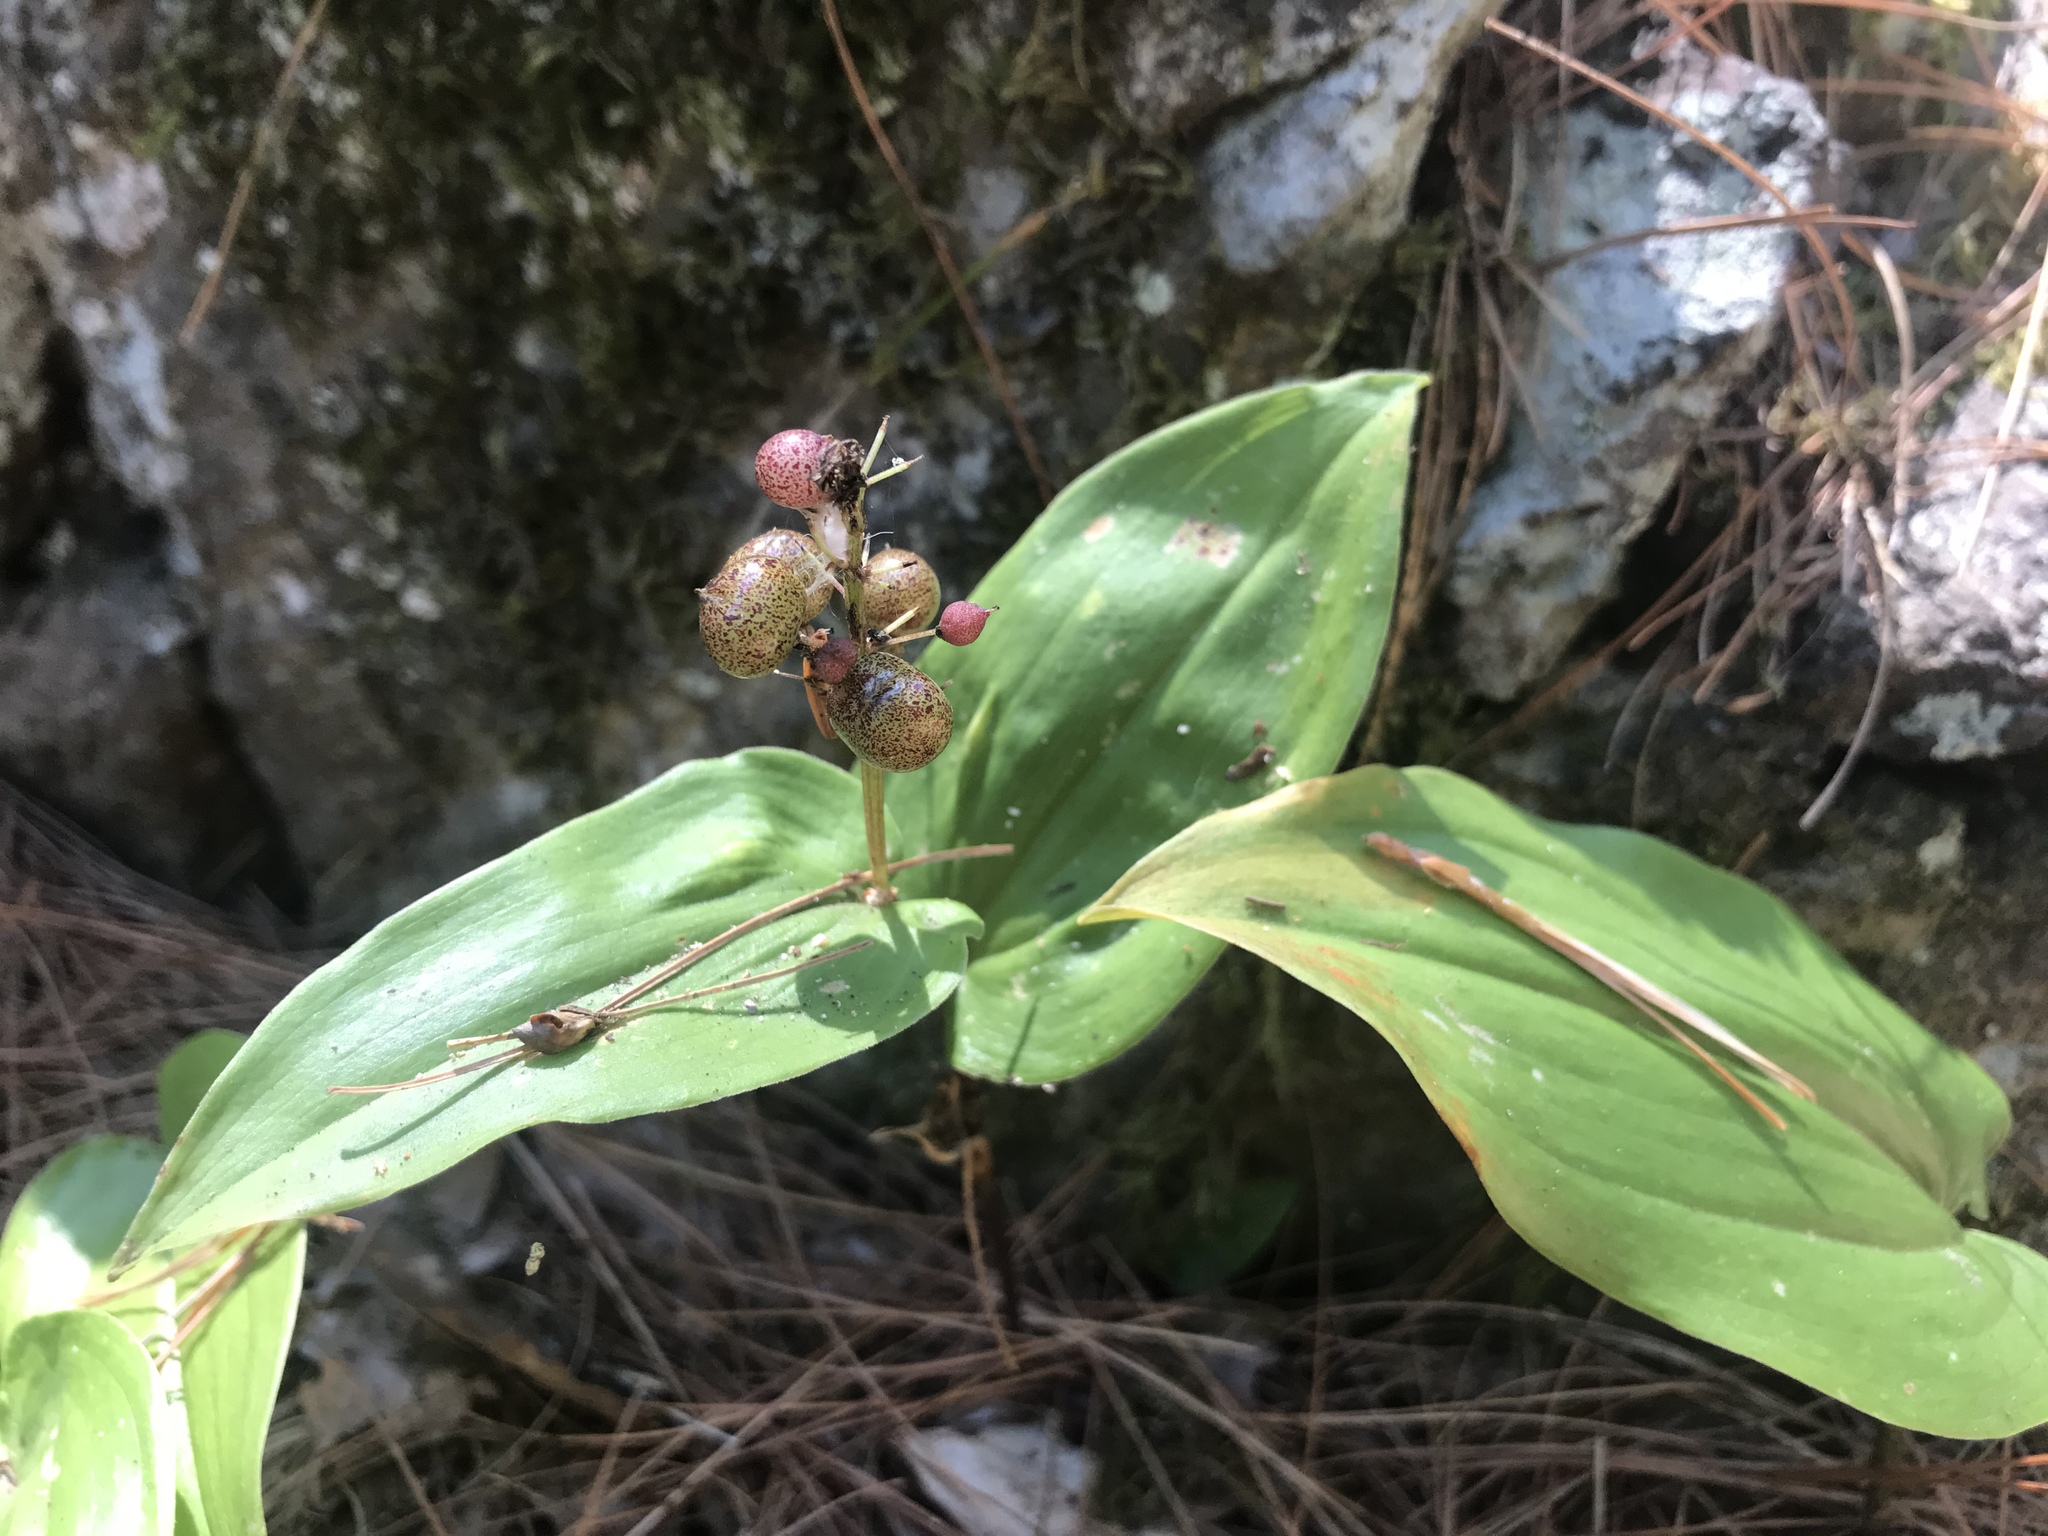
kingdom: Plantae
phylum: Tracheophyta
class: Liliopsida
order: Asparagales
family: Asparagaceae
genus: Maianthemum
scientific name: Maianthemum canadense
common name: False lily-of-the-valley
